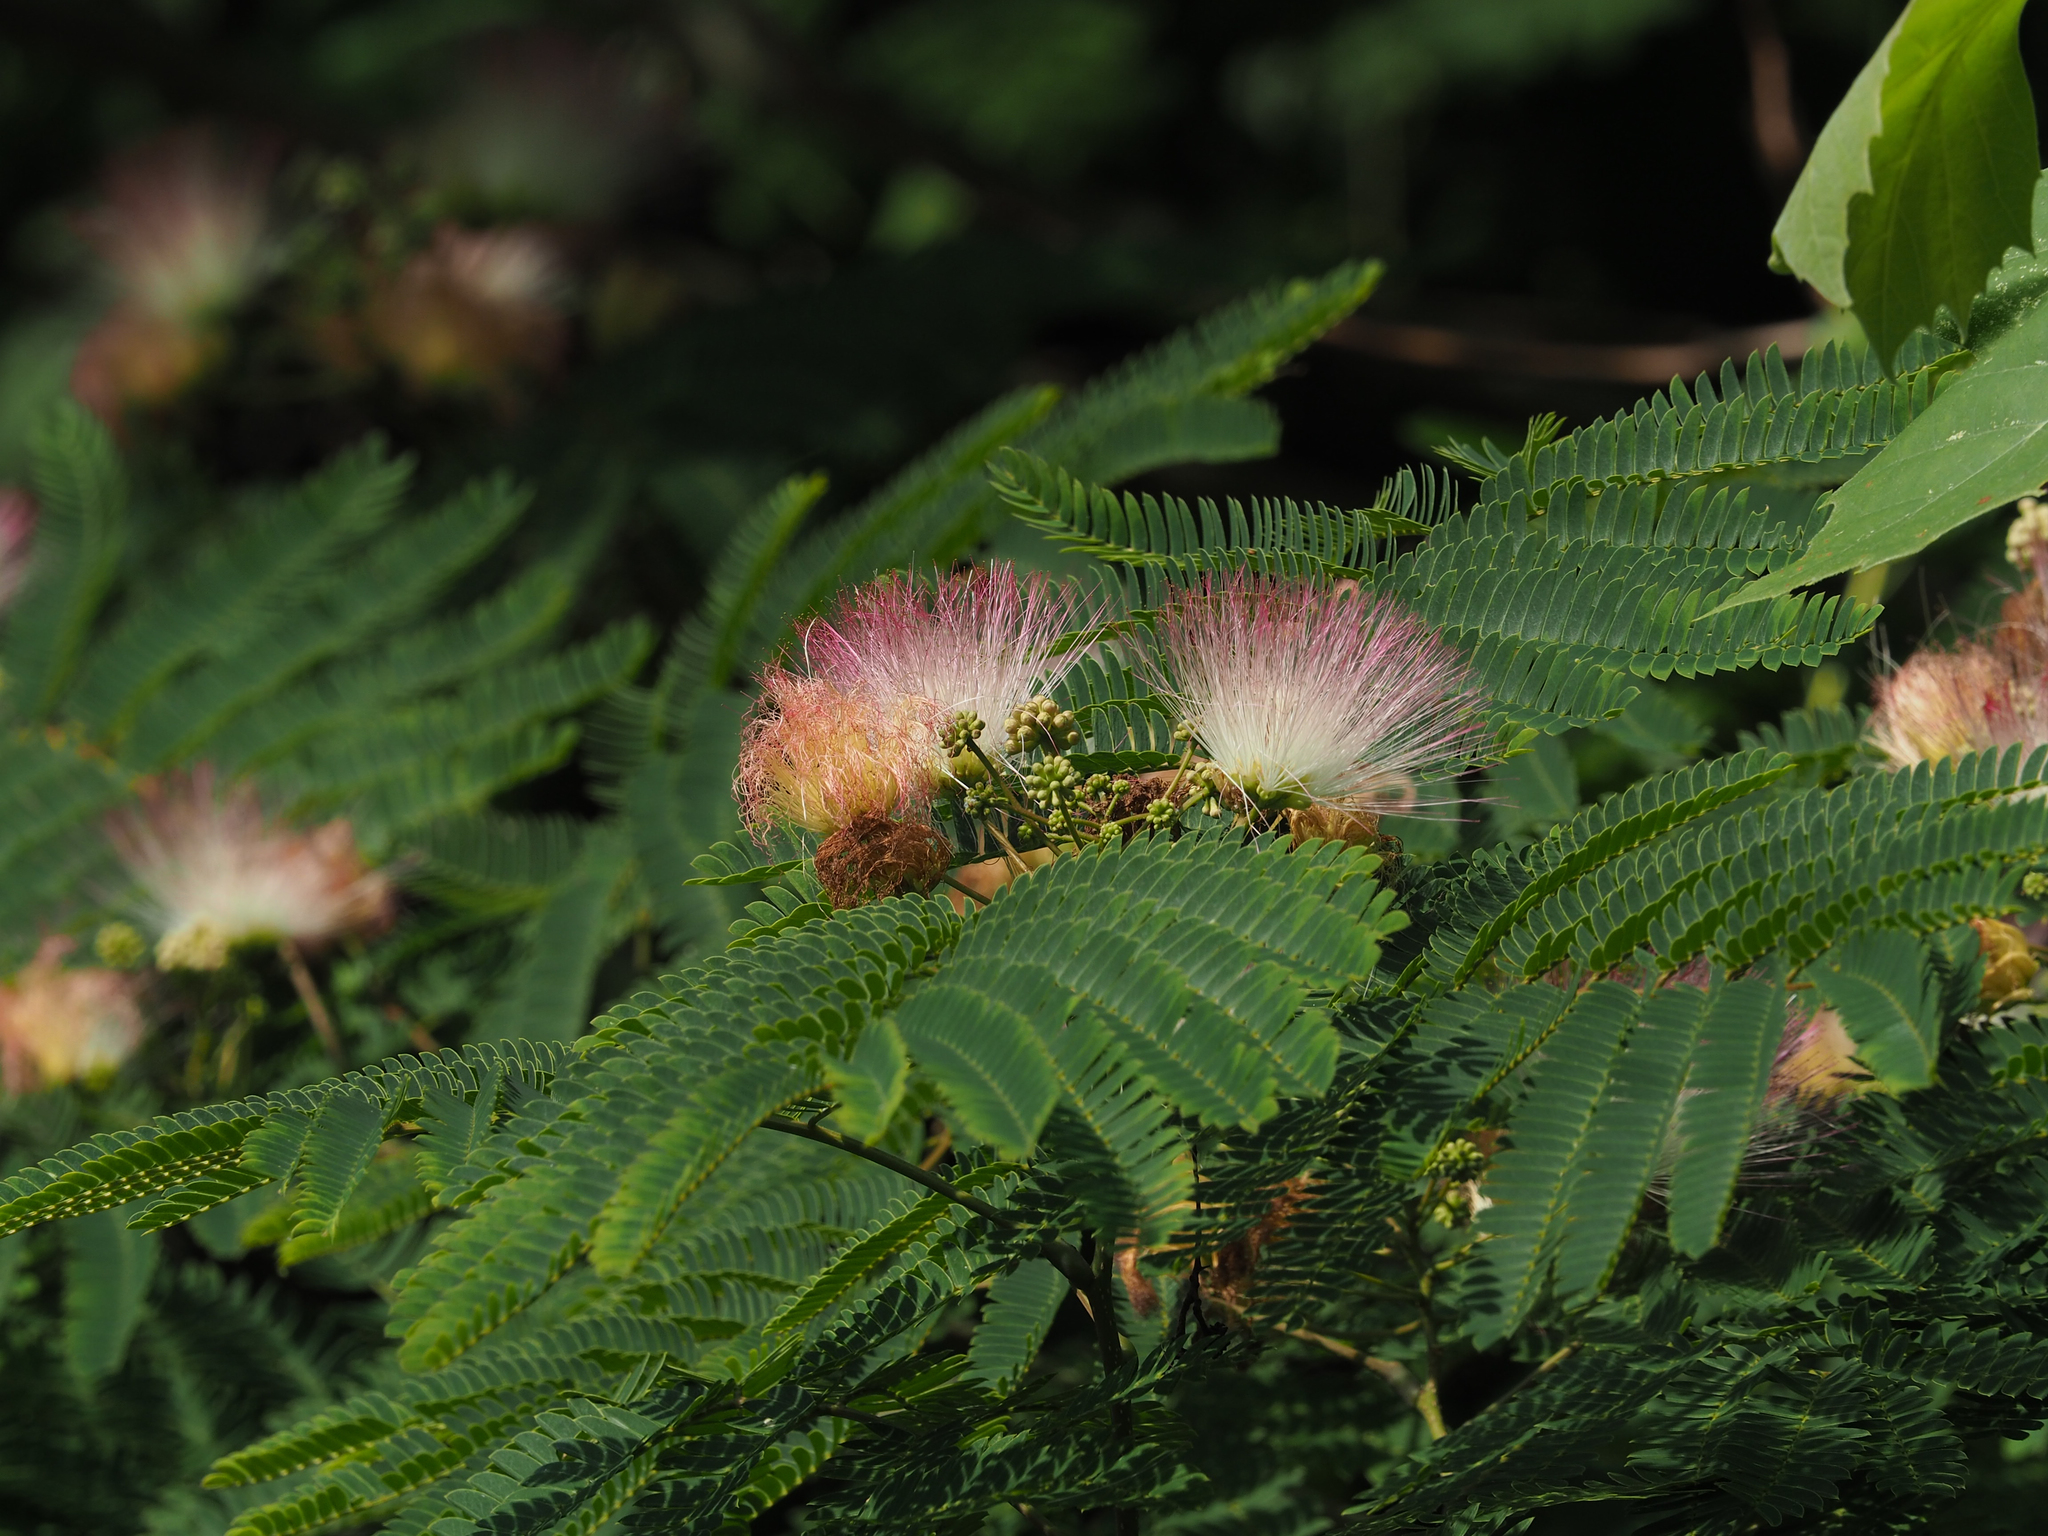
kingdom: Plantae
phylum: Tracheophyta
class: Magnoliopsida
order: Fabales
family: Fabaceae
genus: Albizia
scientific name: Albizia julibrissin
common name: Silktree
